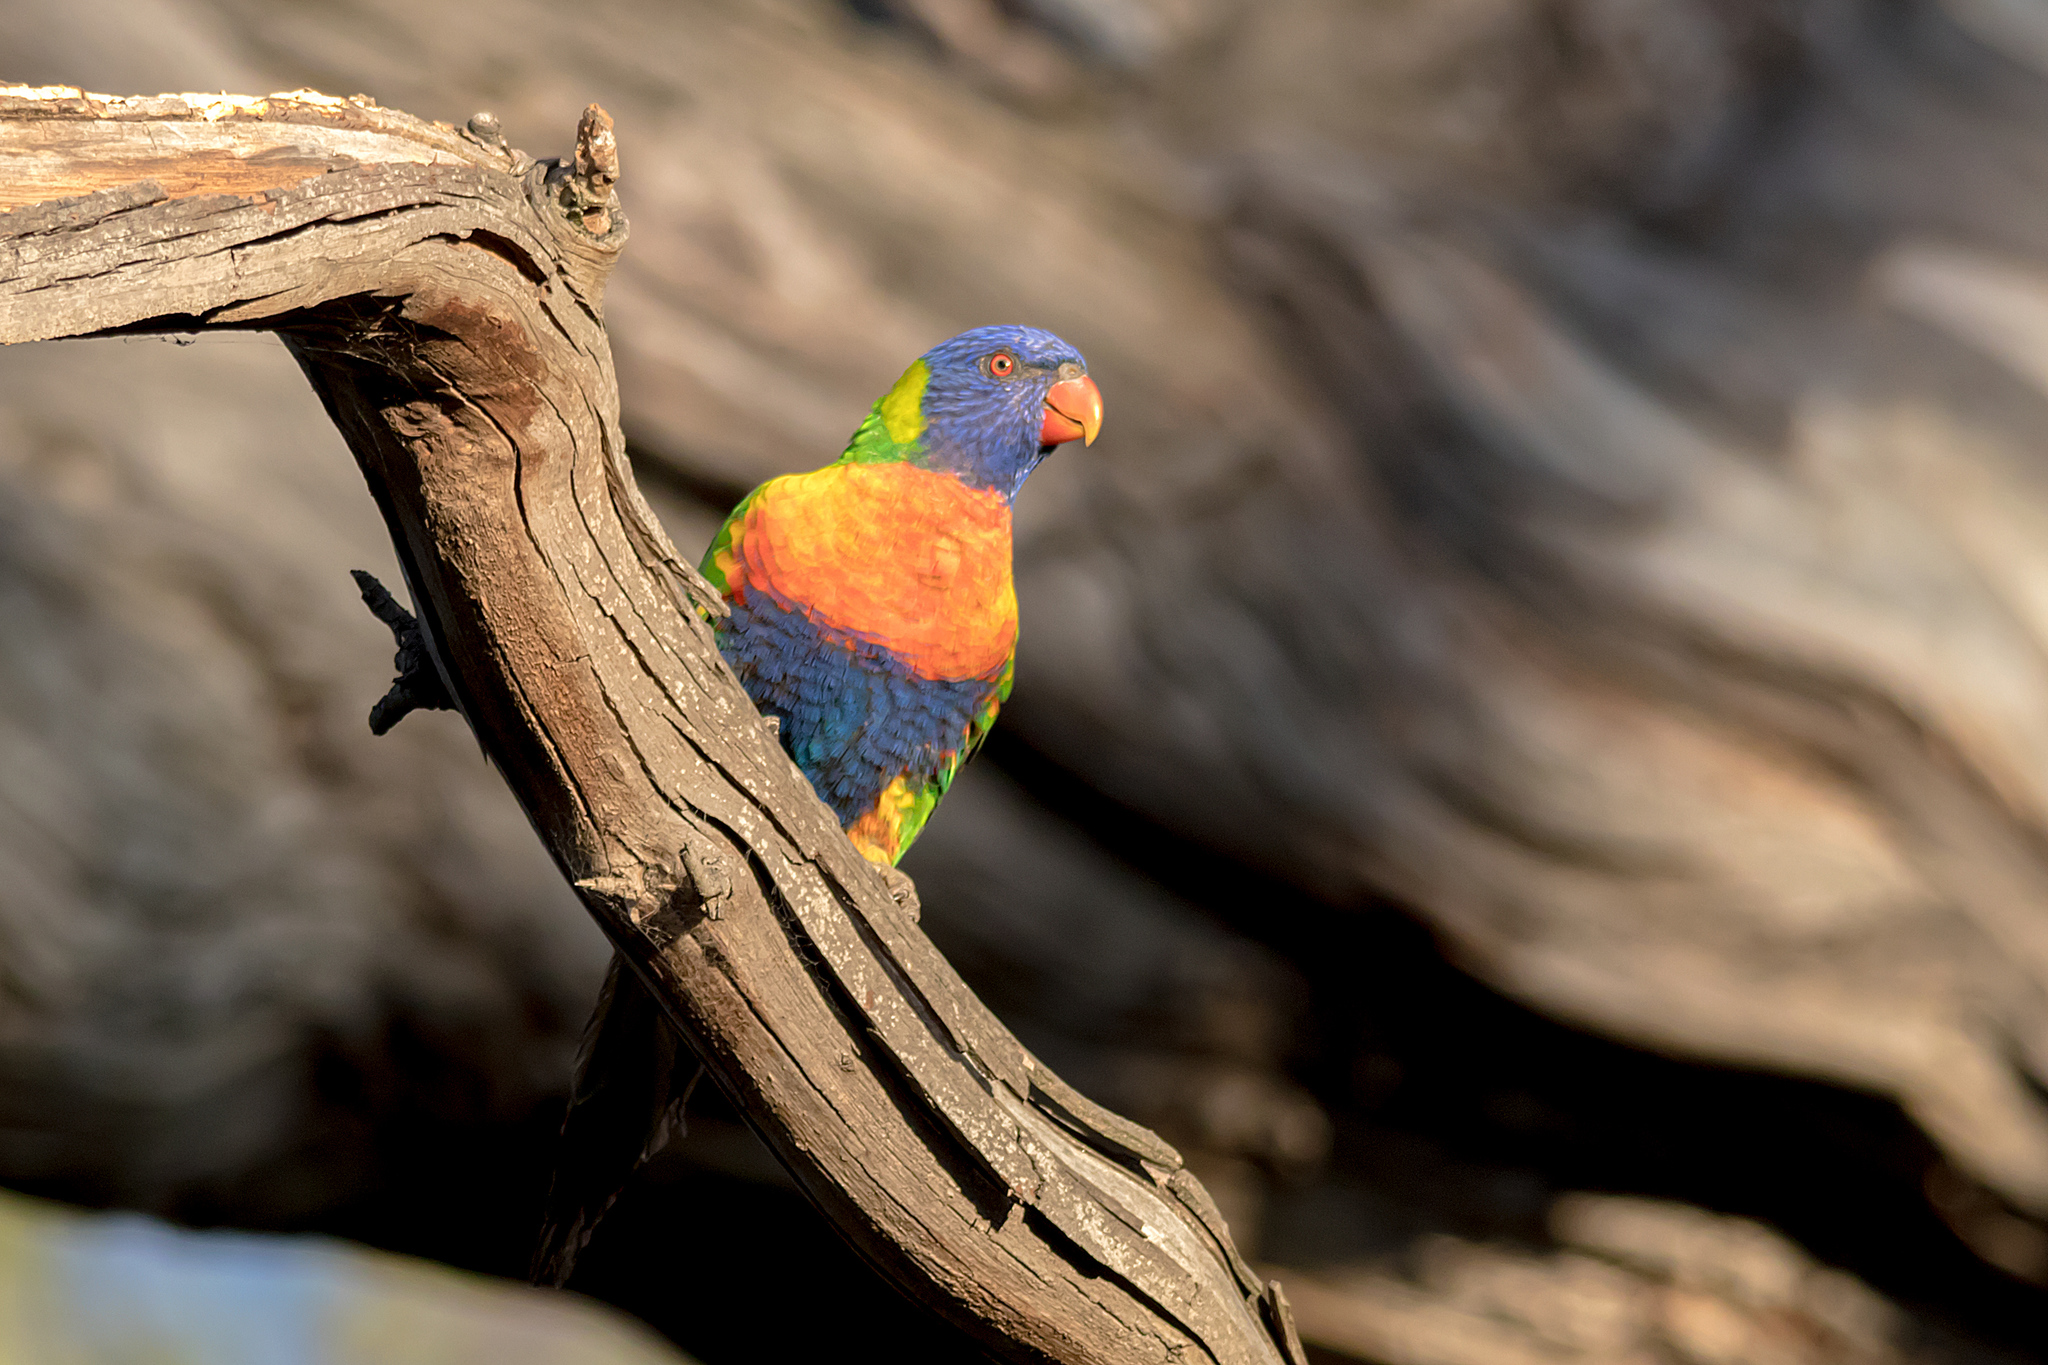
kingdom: Animalia
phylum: Chordata
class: Aves
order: Psittaciformes
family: Psittacidae
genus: Trichoglossus
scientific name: Trichoglossus haematodus
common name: Coconut lorikeet
